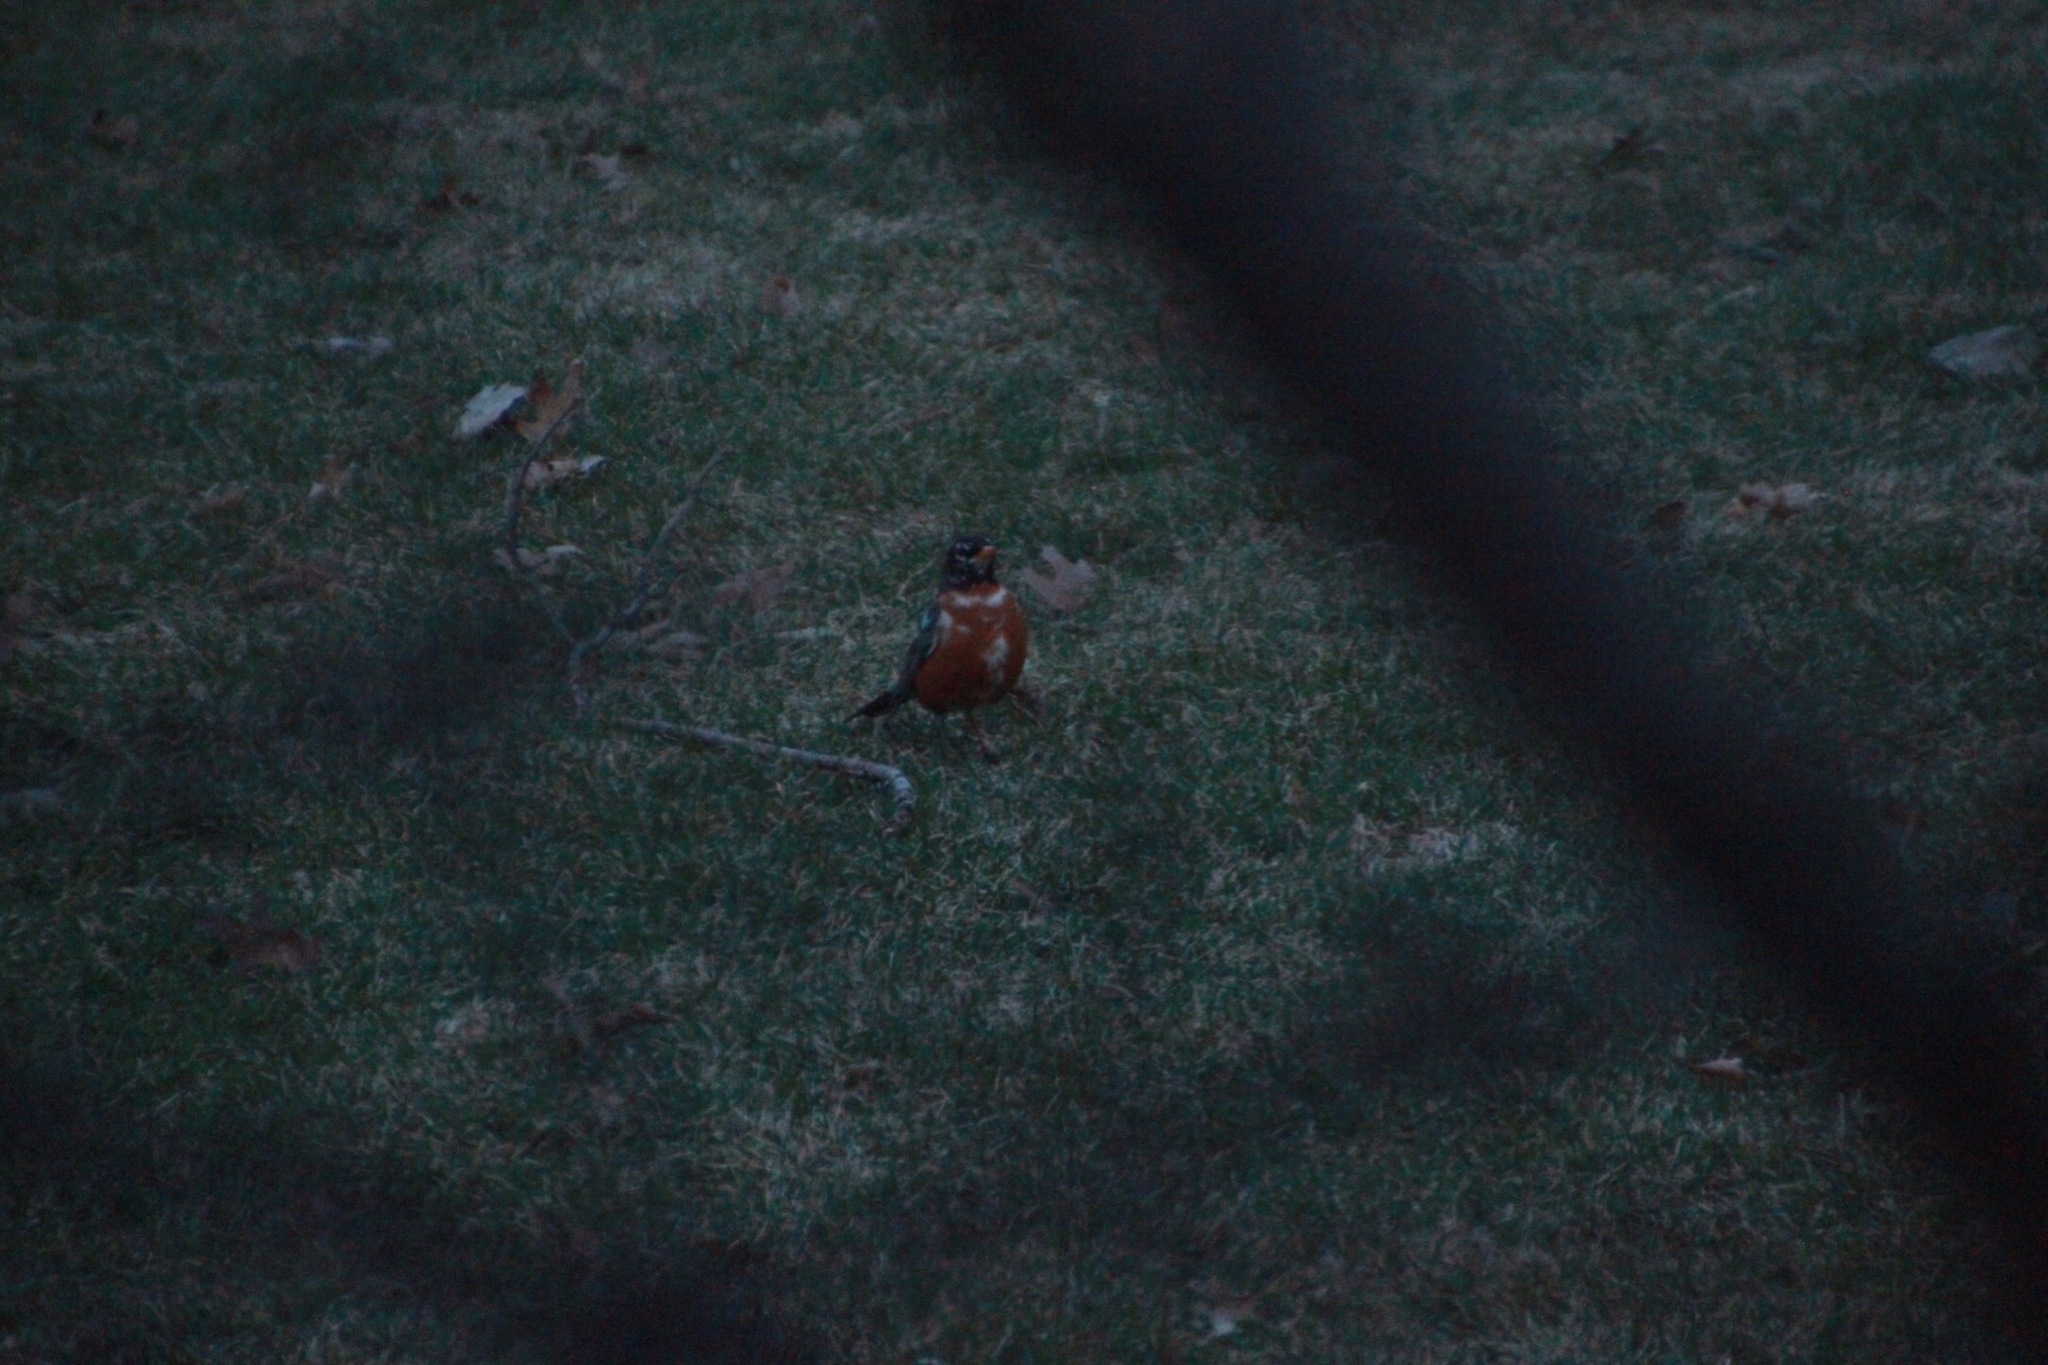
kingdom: Animalia
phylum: Chordata
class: Aves
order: Passeriformes
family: Turdidae
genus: Turdus
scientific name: Turdus migratorius
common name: American robin
